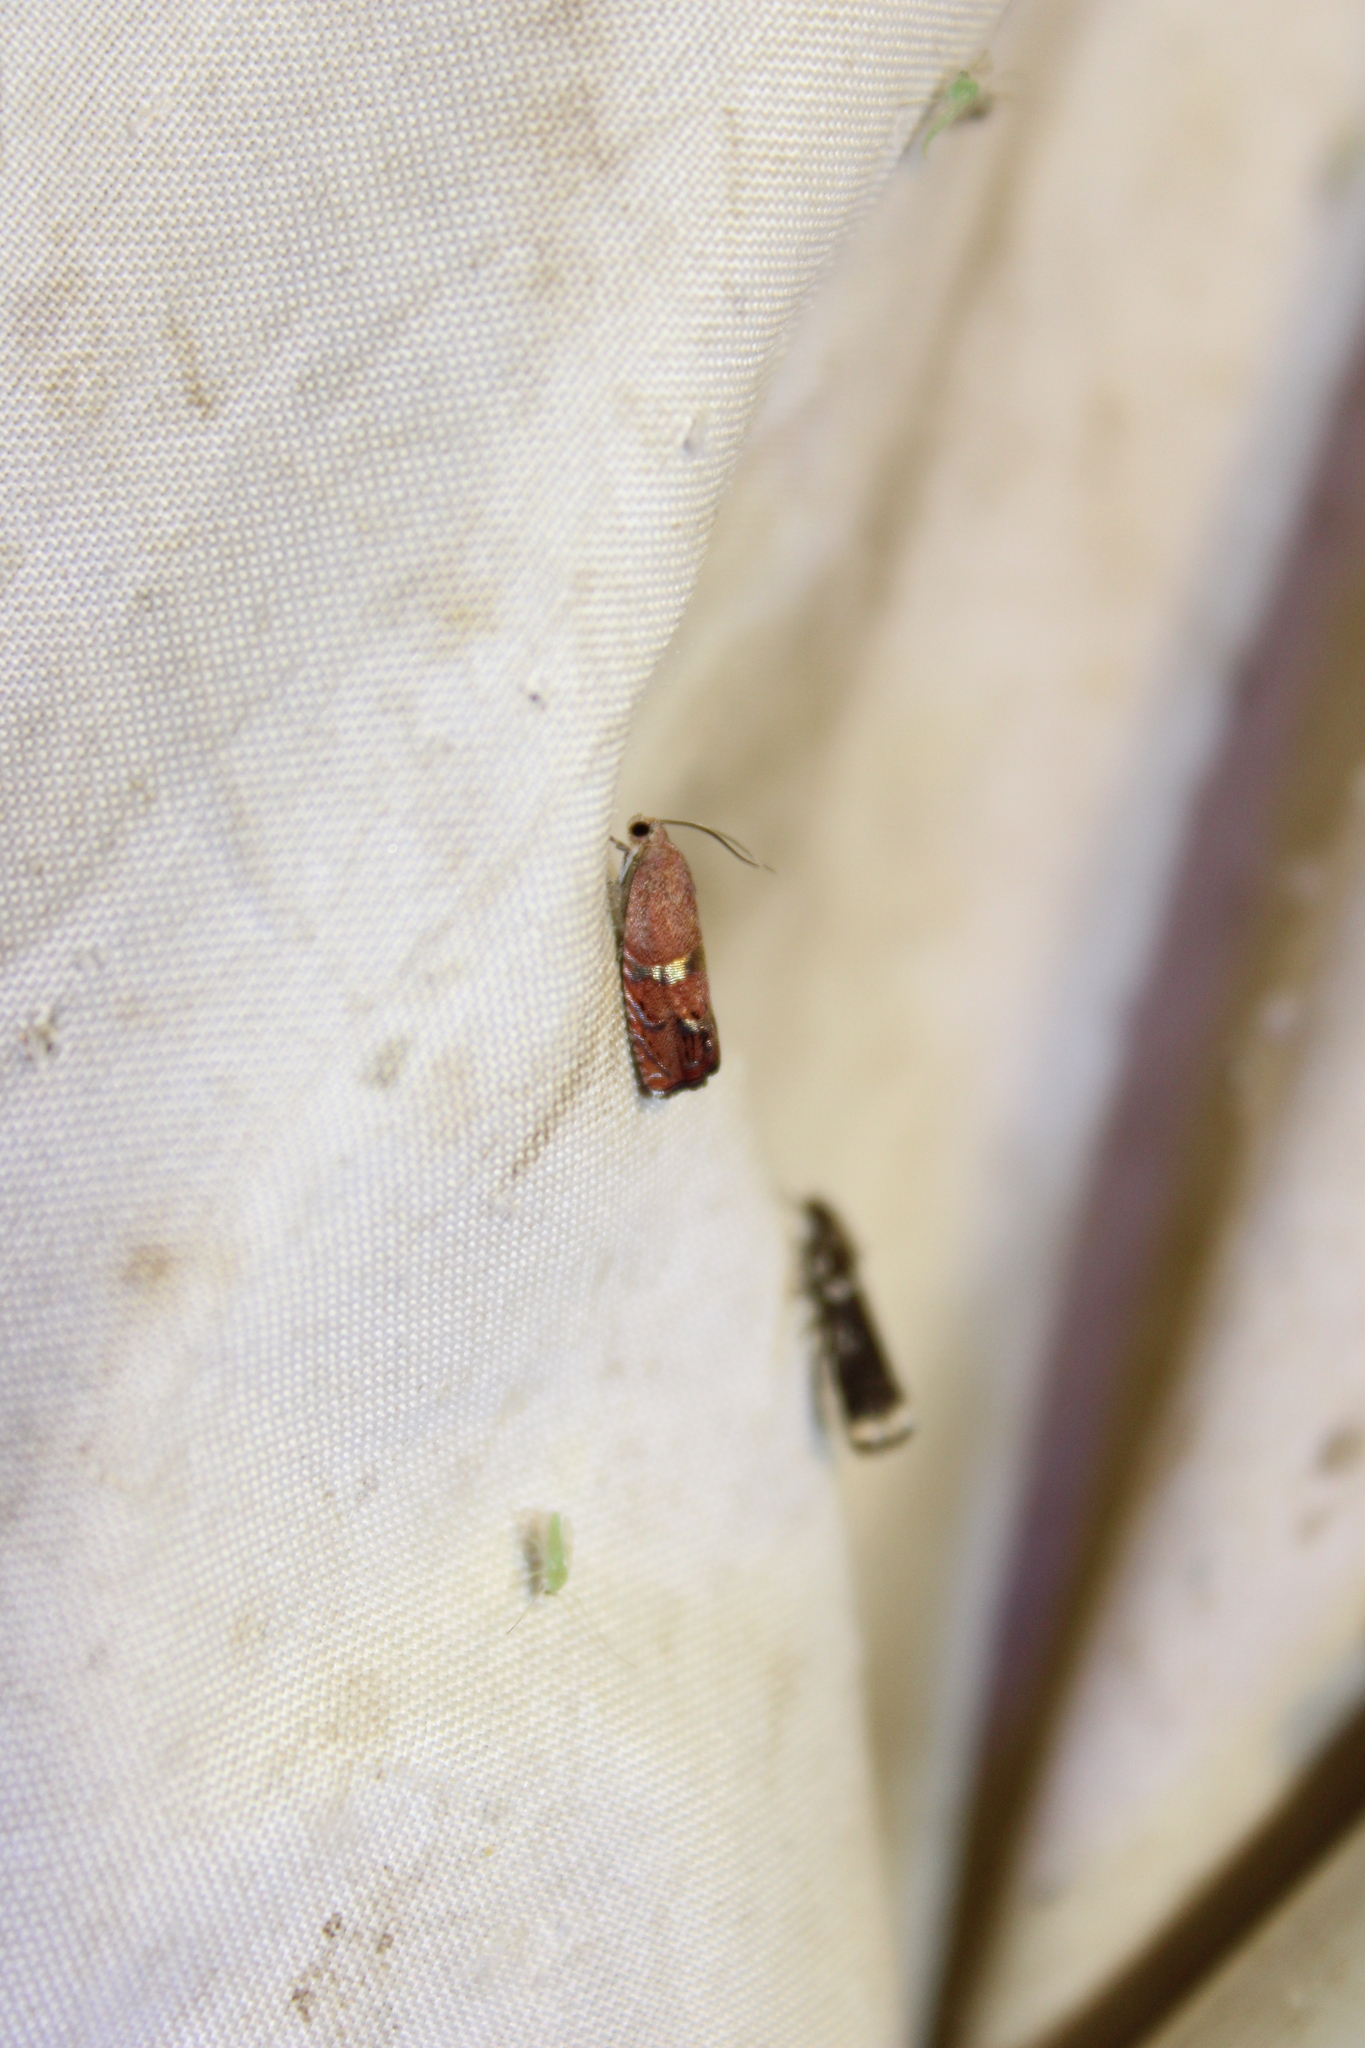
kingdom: Animalia
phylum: Arthropoda
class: Insecta
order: Lepidoptera
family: Tortricidae
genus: Cydia
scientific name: Cydia latiferreana
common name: Filbertworm moth
